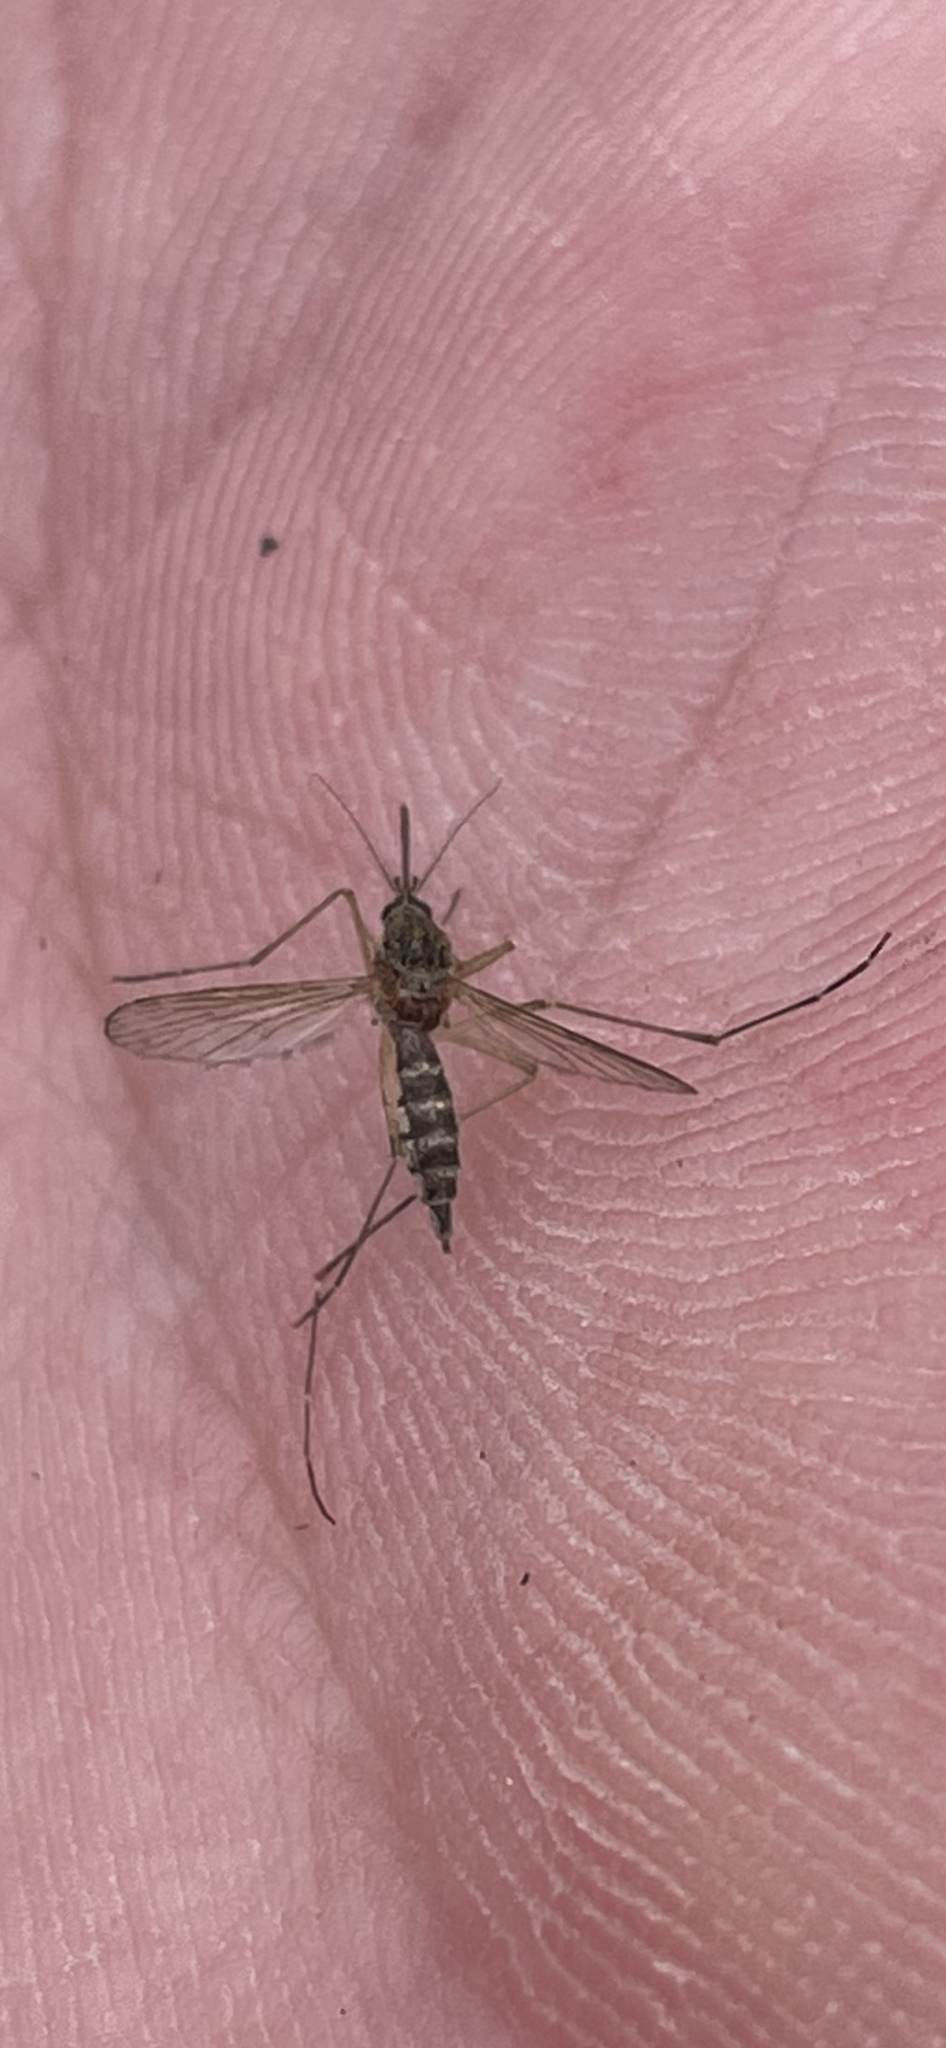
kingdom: Animalia
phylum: Arthropoda
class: Insecta
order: Diptera
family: Culicidae
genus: Aedes
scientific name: Aedes vexans
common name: Inland floodwater mosquito
